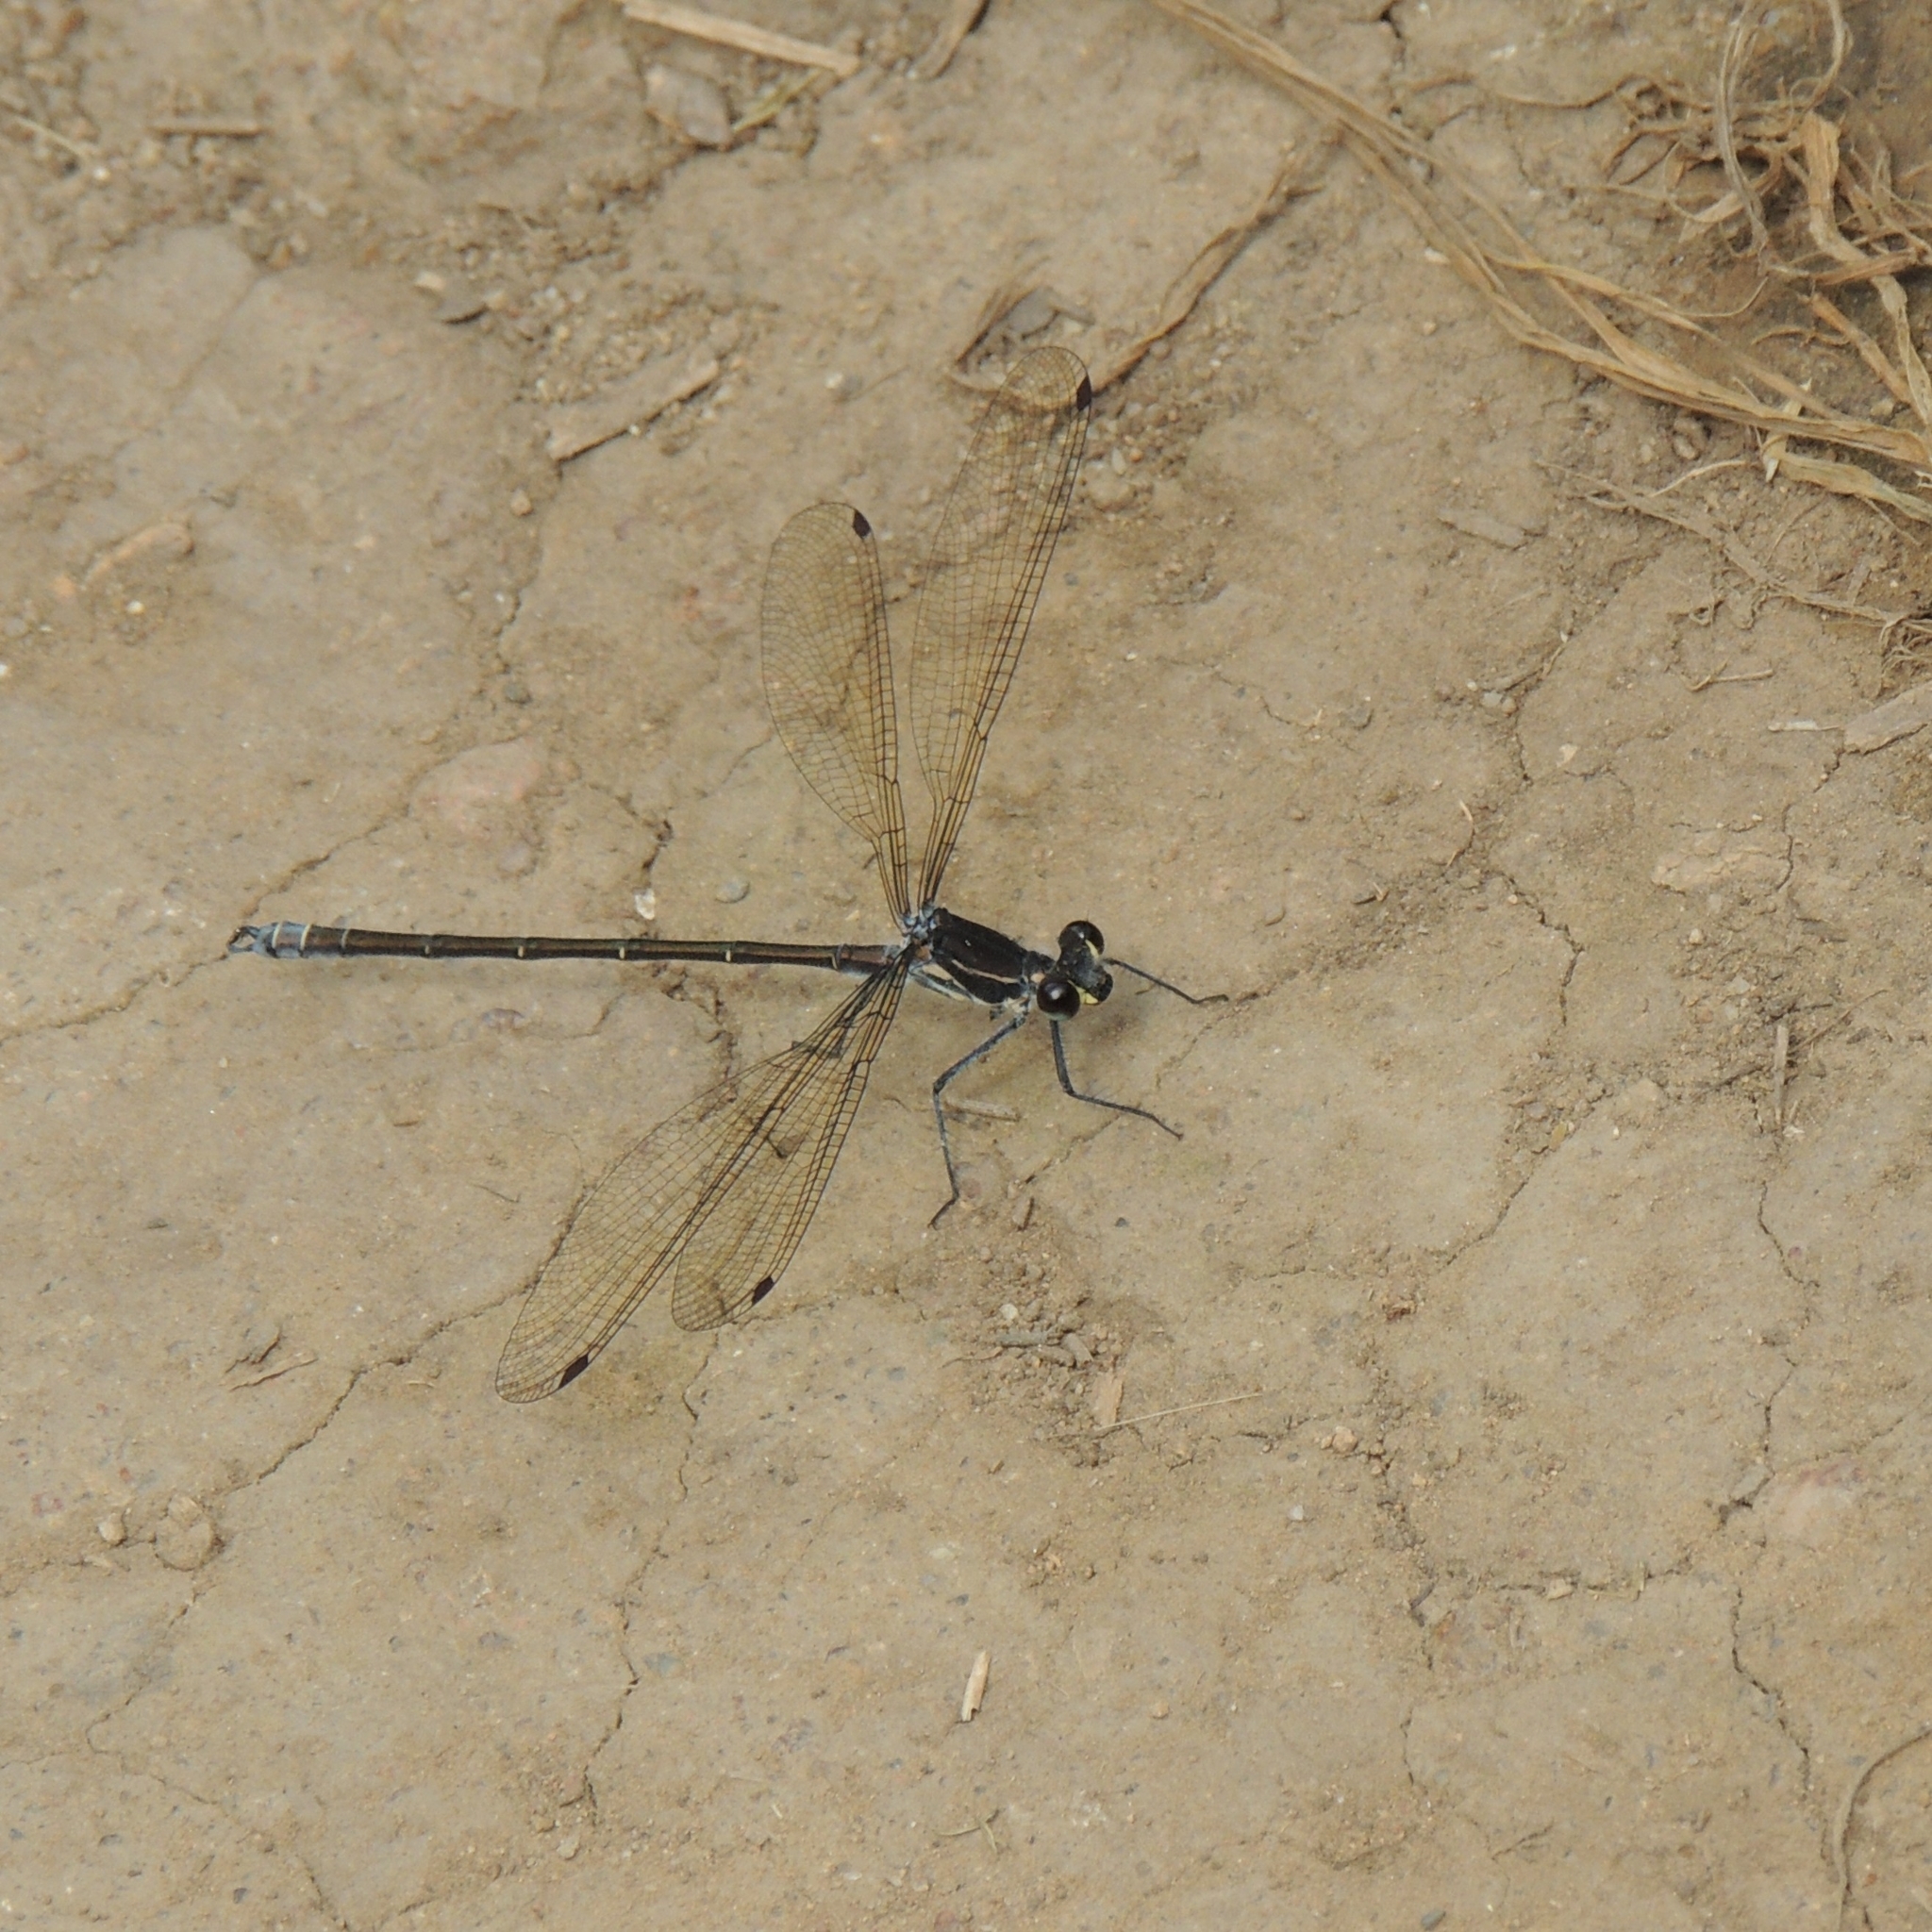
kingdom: Animalia
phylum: Arthropoda
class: Insecta
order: Odonata
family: Argiolestidae
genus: Austroargiolestes
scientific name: Austroargiolestes icteromelas
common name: Common flatwing
